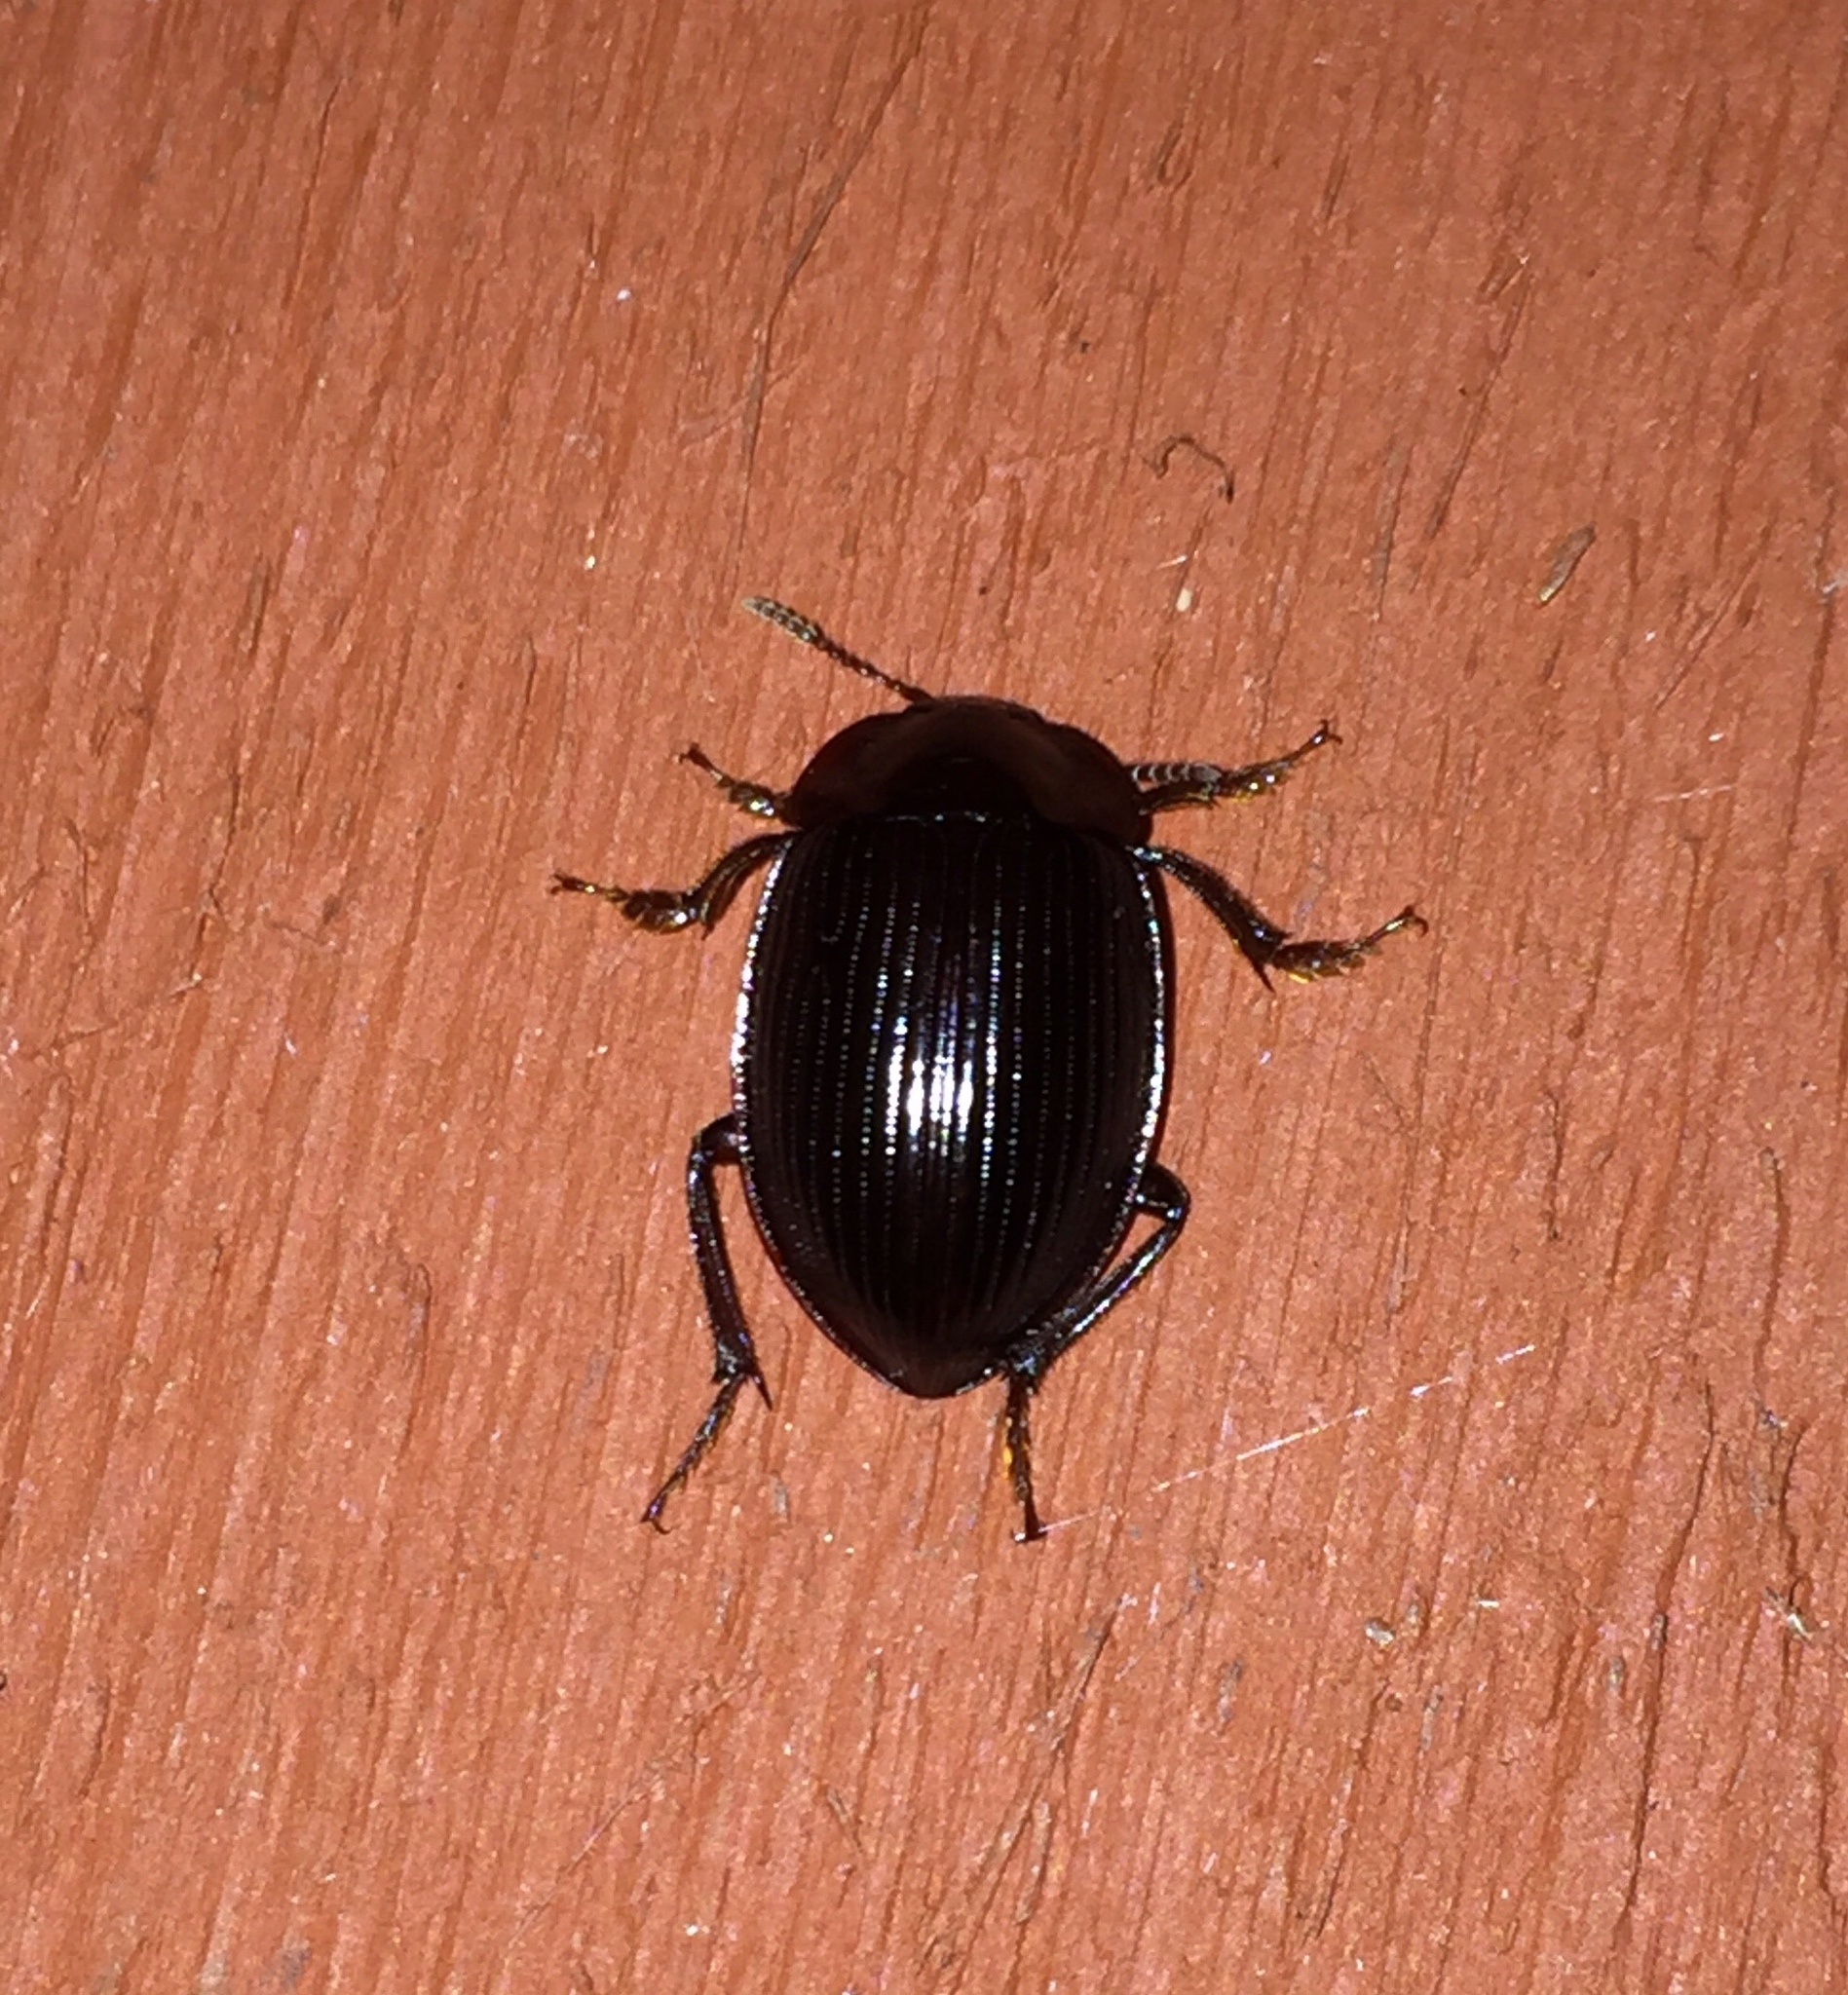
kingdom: Animalia
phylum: Arthropoda
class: Insecta
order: Coleoptera
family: Agyrtidae
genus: Necrophilus
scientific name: Necrophilus hydrophiloides
